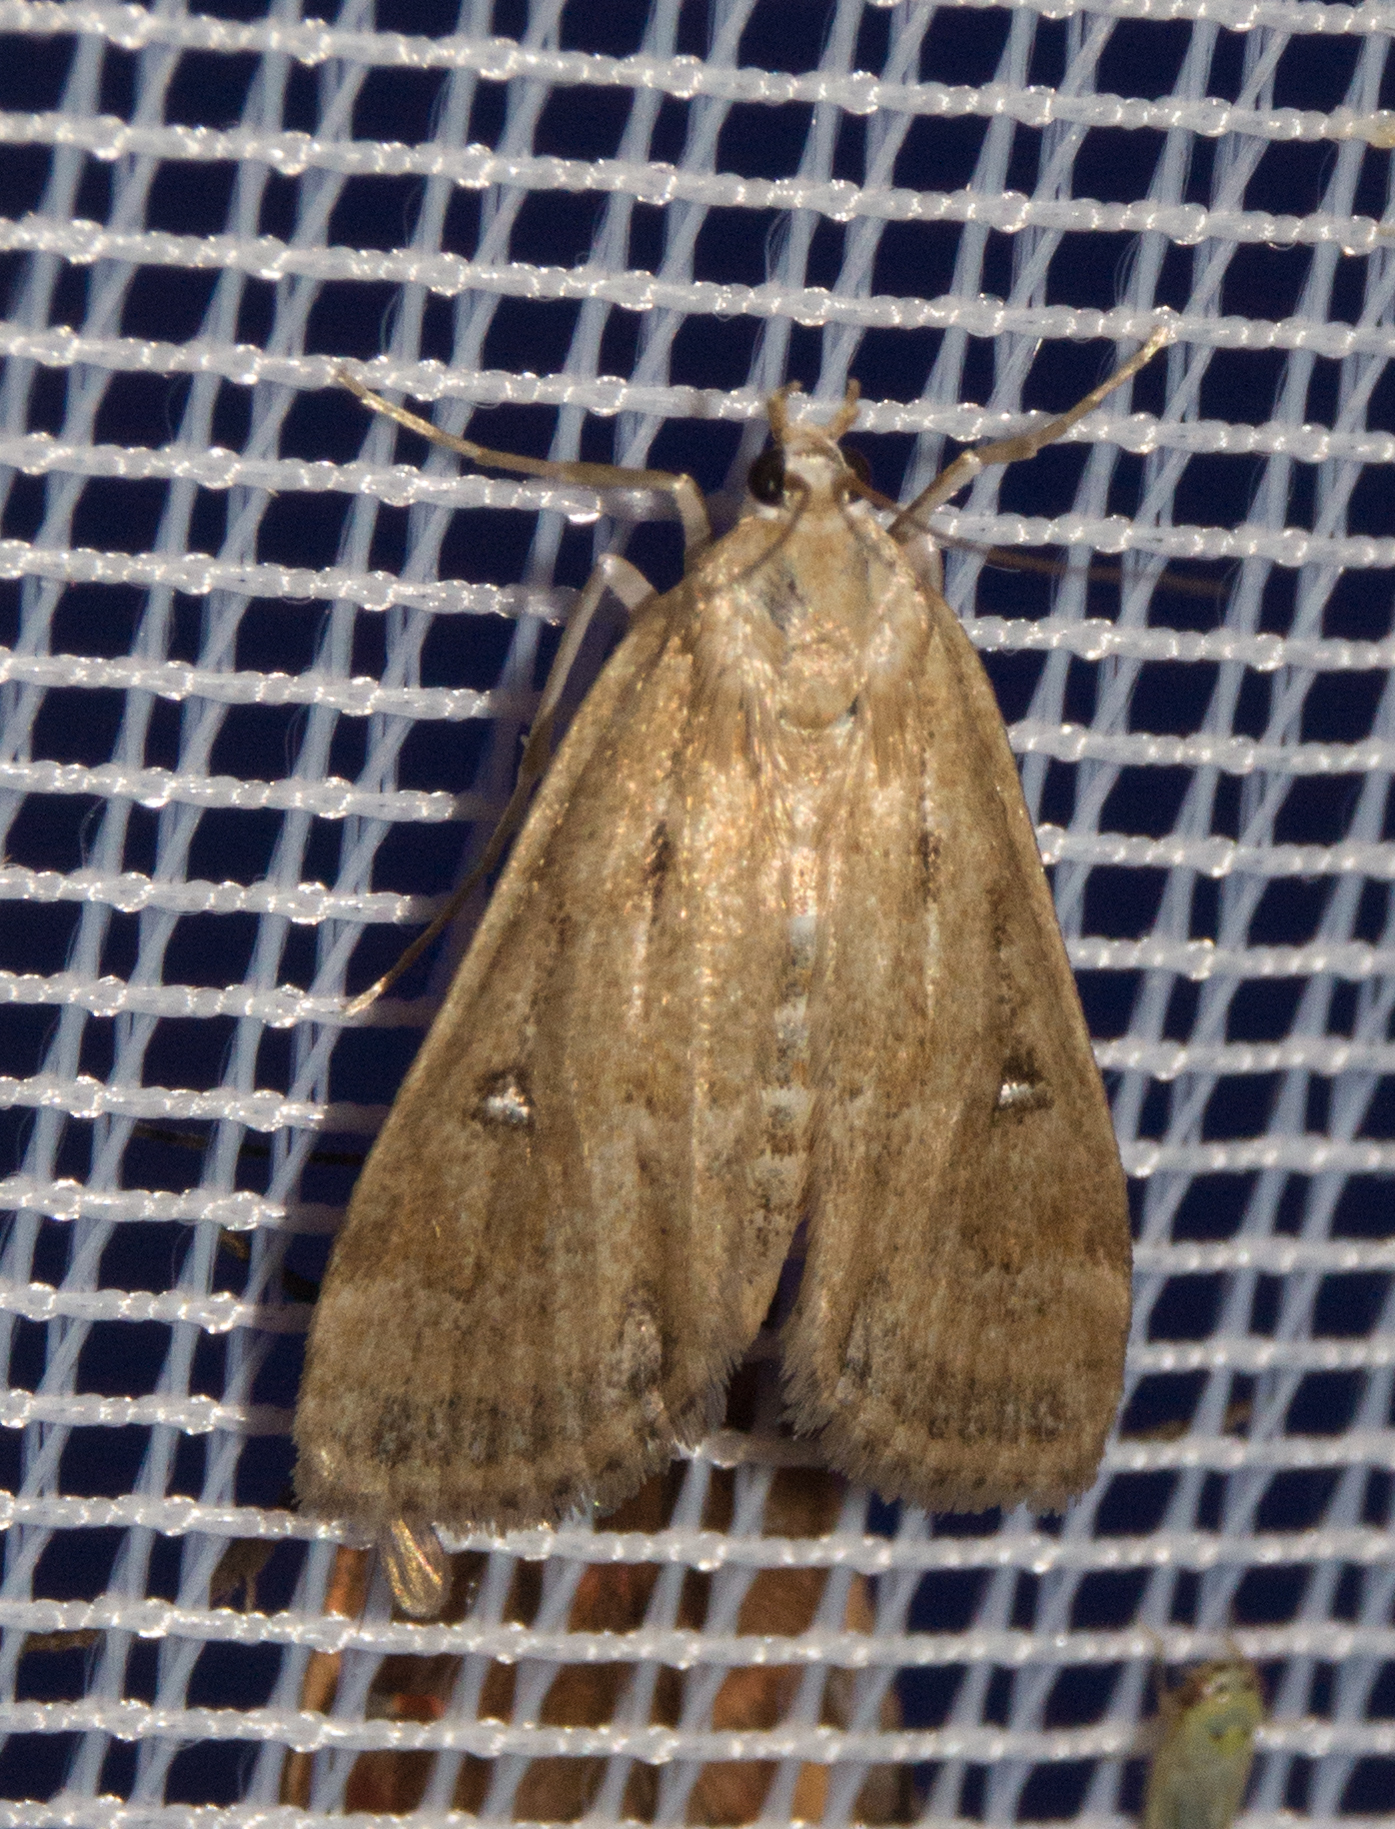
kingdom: Animalia
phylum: Arthropoda
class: Insecta
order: Lepidoptera
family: Crambidae
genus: Parapoynx
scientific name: Parapoynx stratiotata
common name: Ringed china-mark
